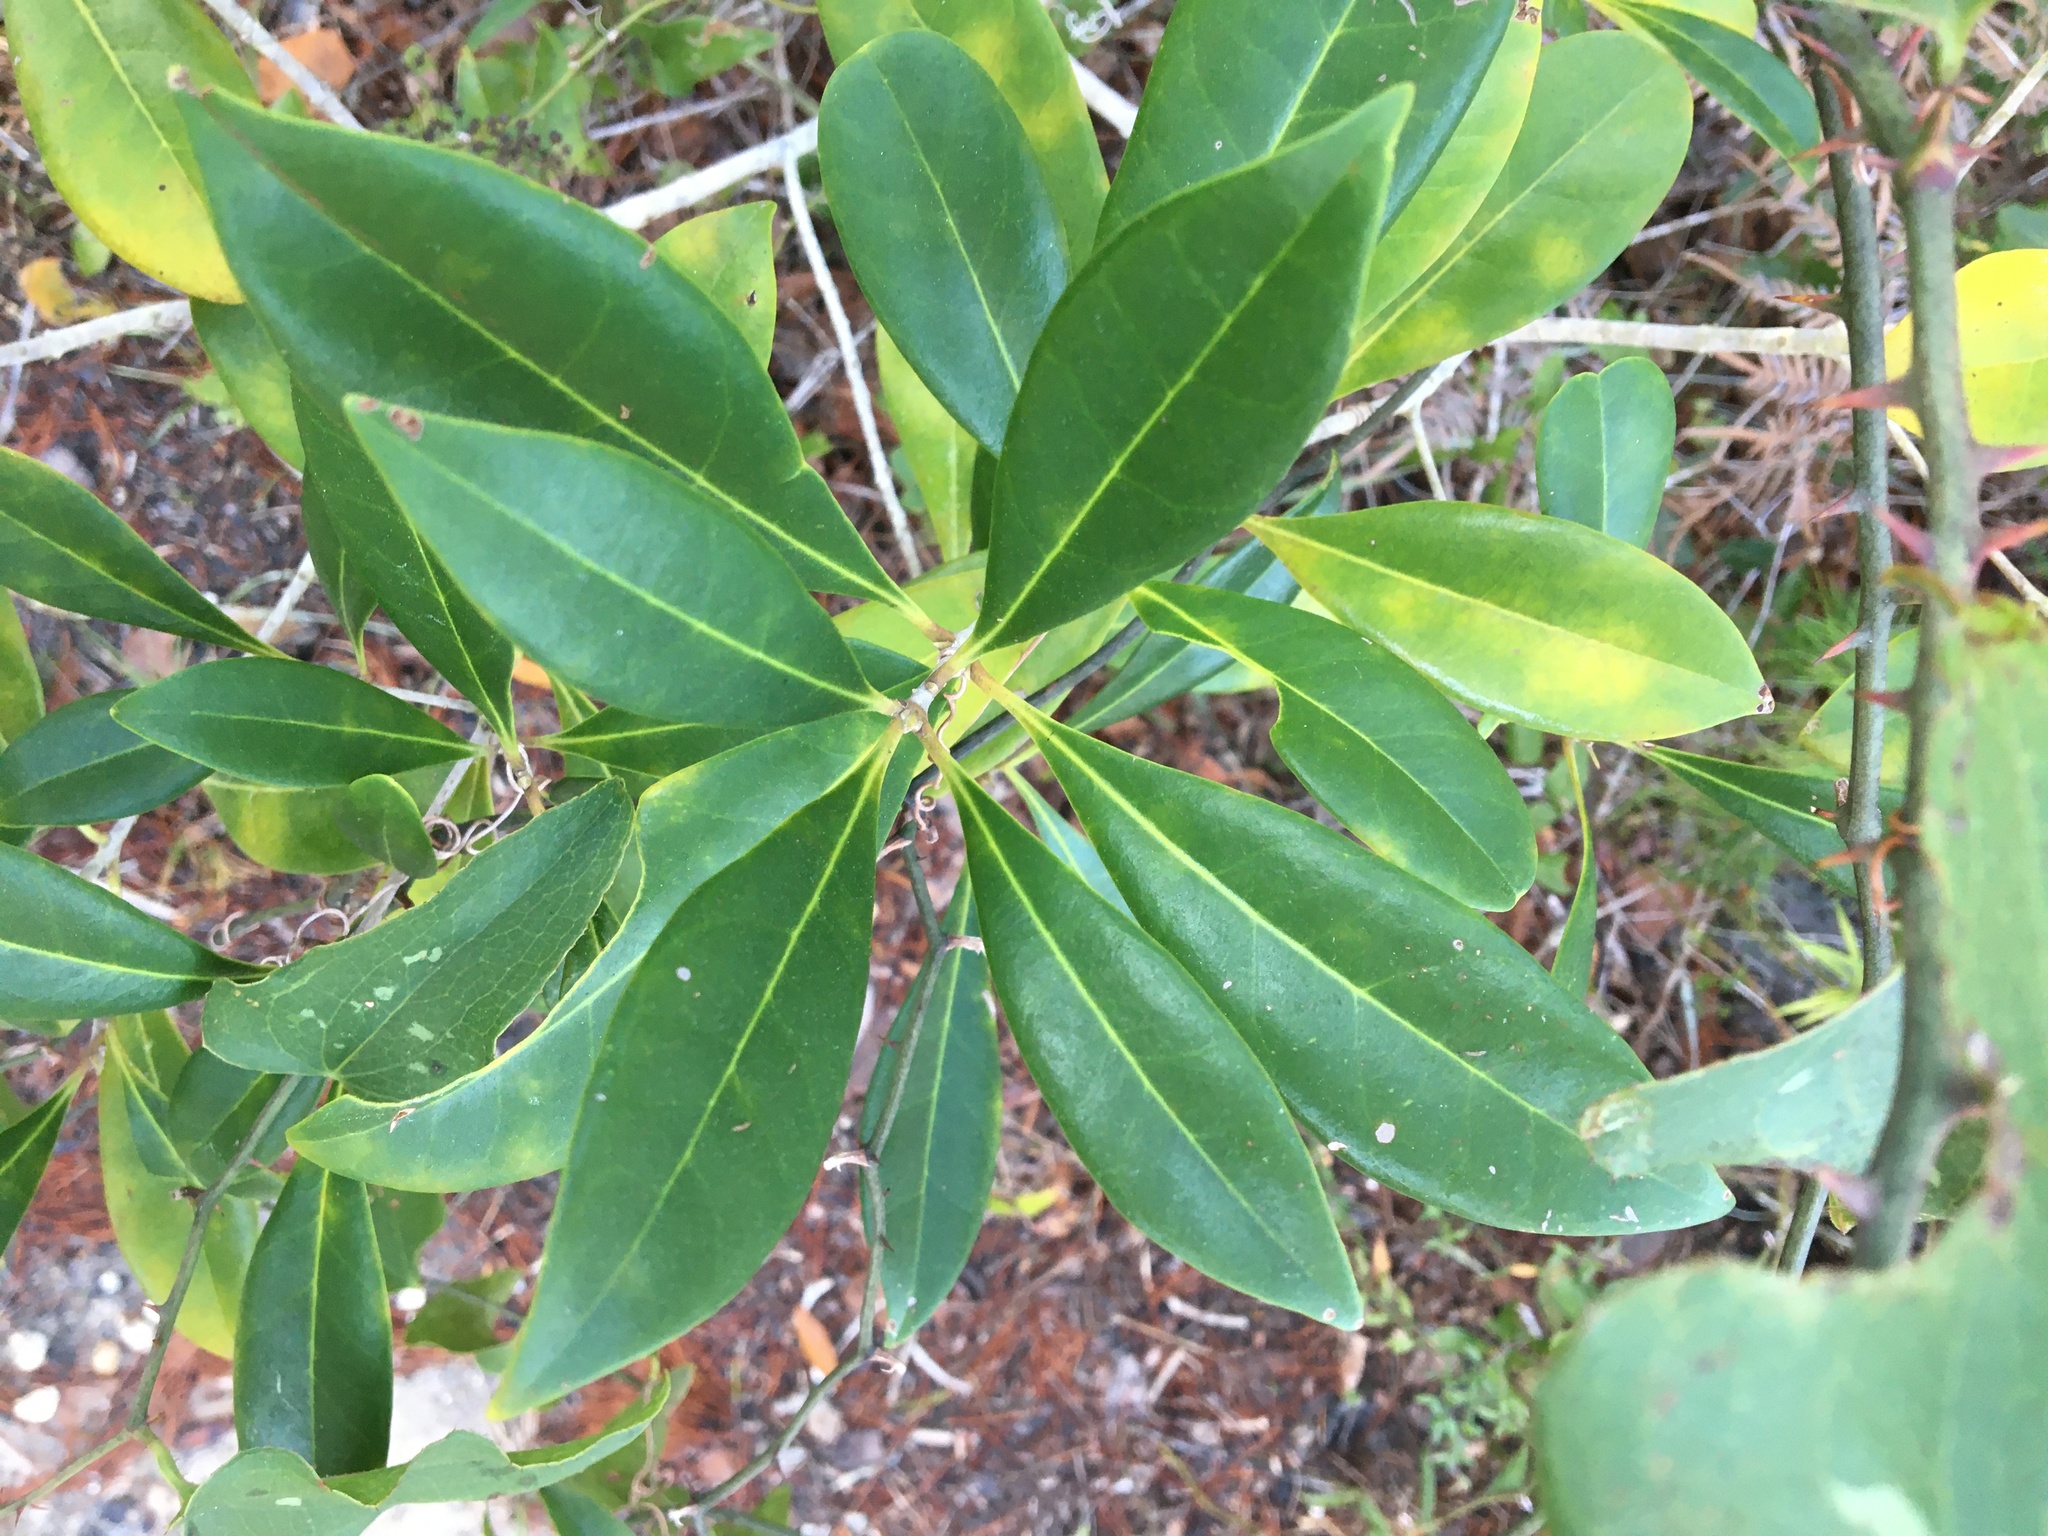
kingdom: Plantae
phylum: Tracheophyta
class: Magnoliopsida
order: Lamiales
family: Oleaceae
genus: Cartrema
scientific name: Cartrema americana
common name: Devilwood
